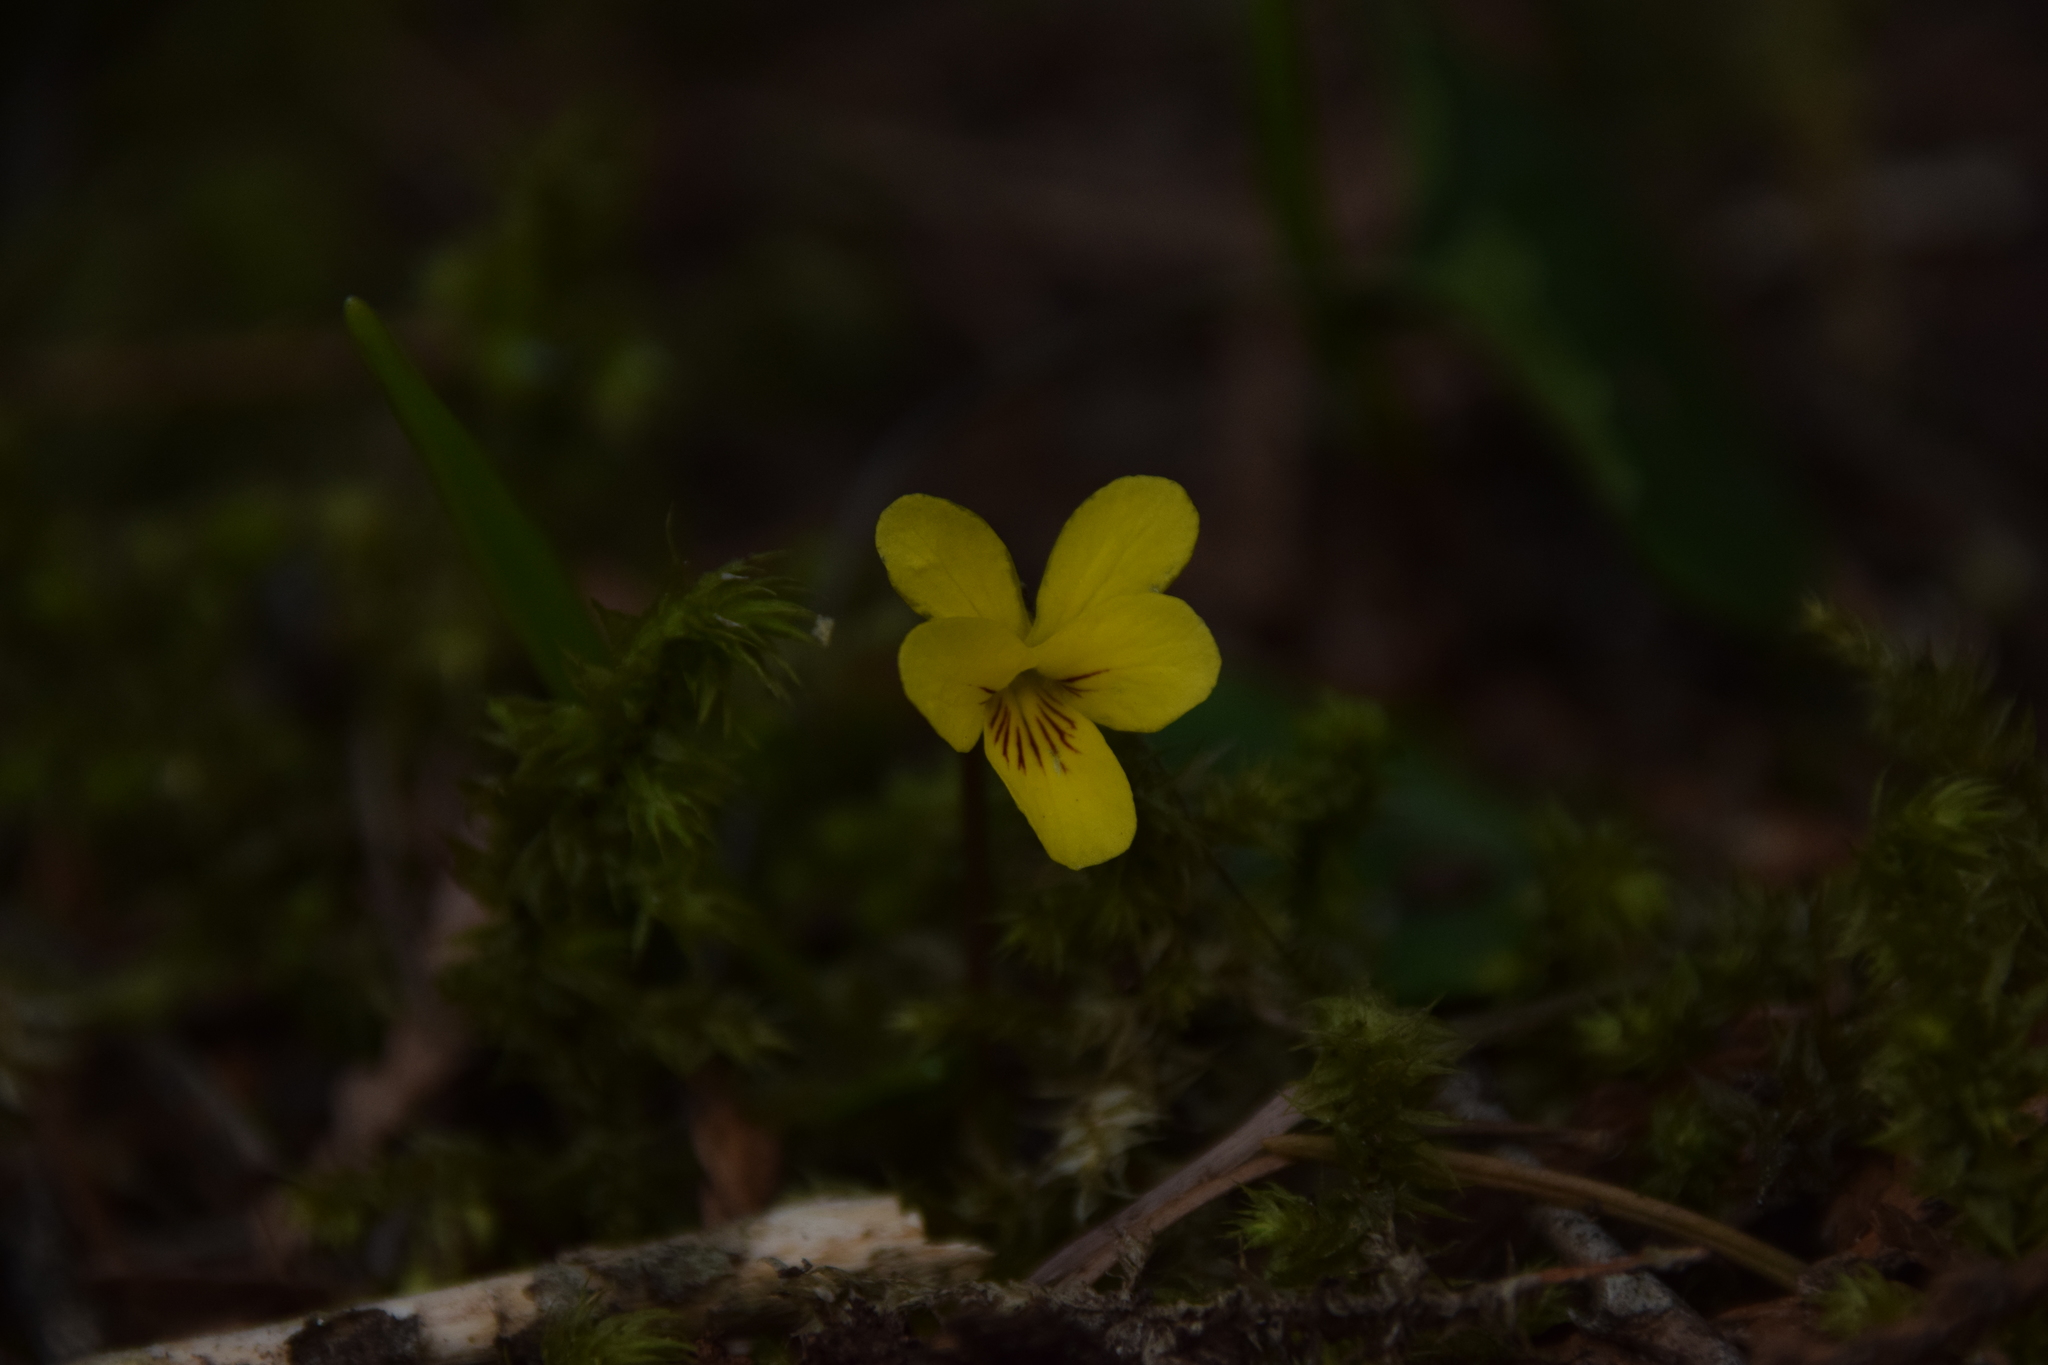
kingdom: Plantae
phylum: Tracheophyta
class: Magnoliopsida
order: Malpighiales
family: Violaceae
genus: Viola
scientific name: Viola orbiculata
